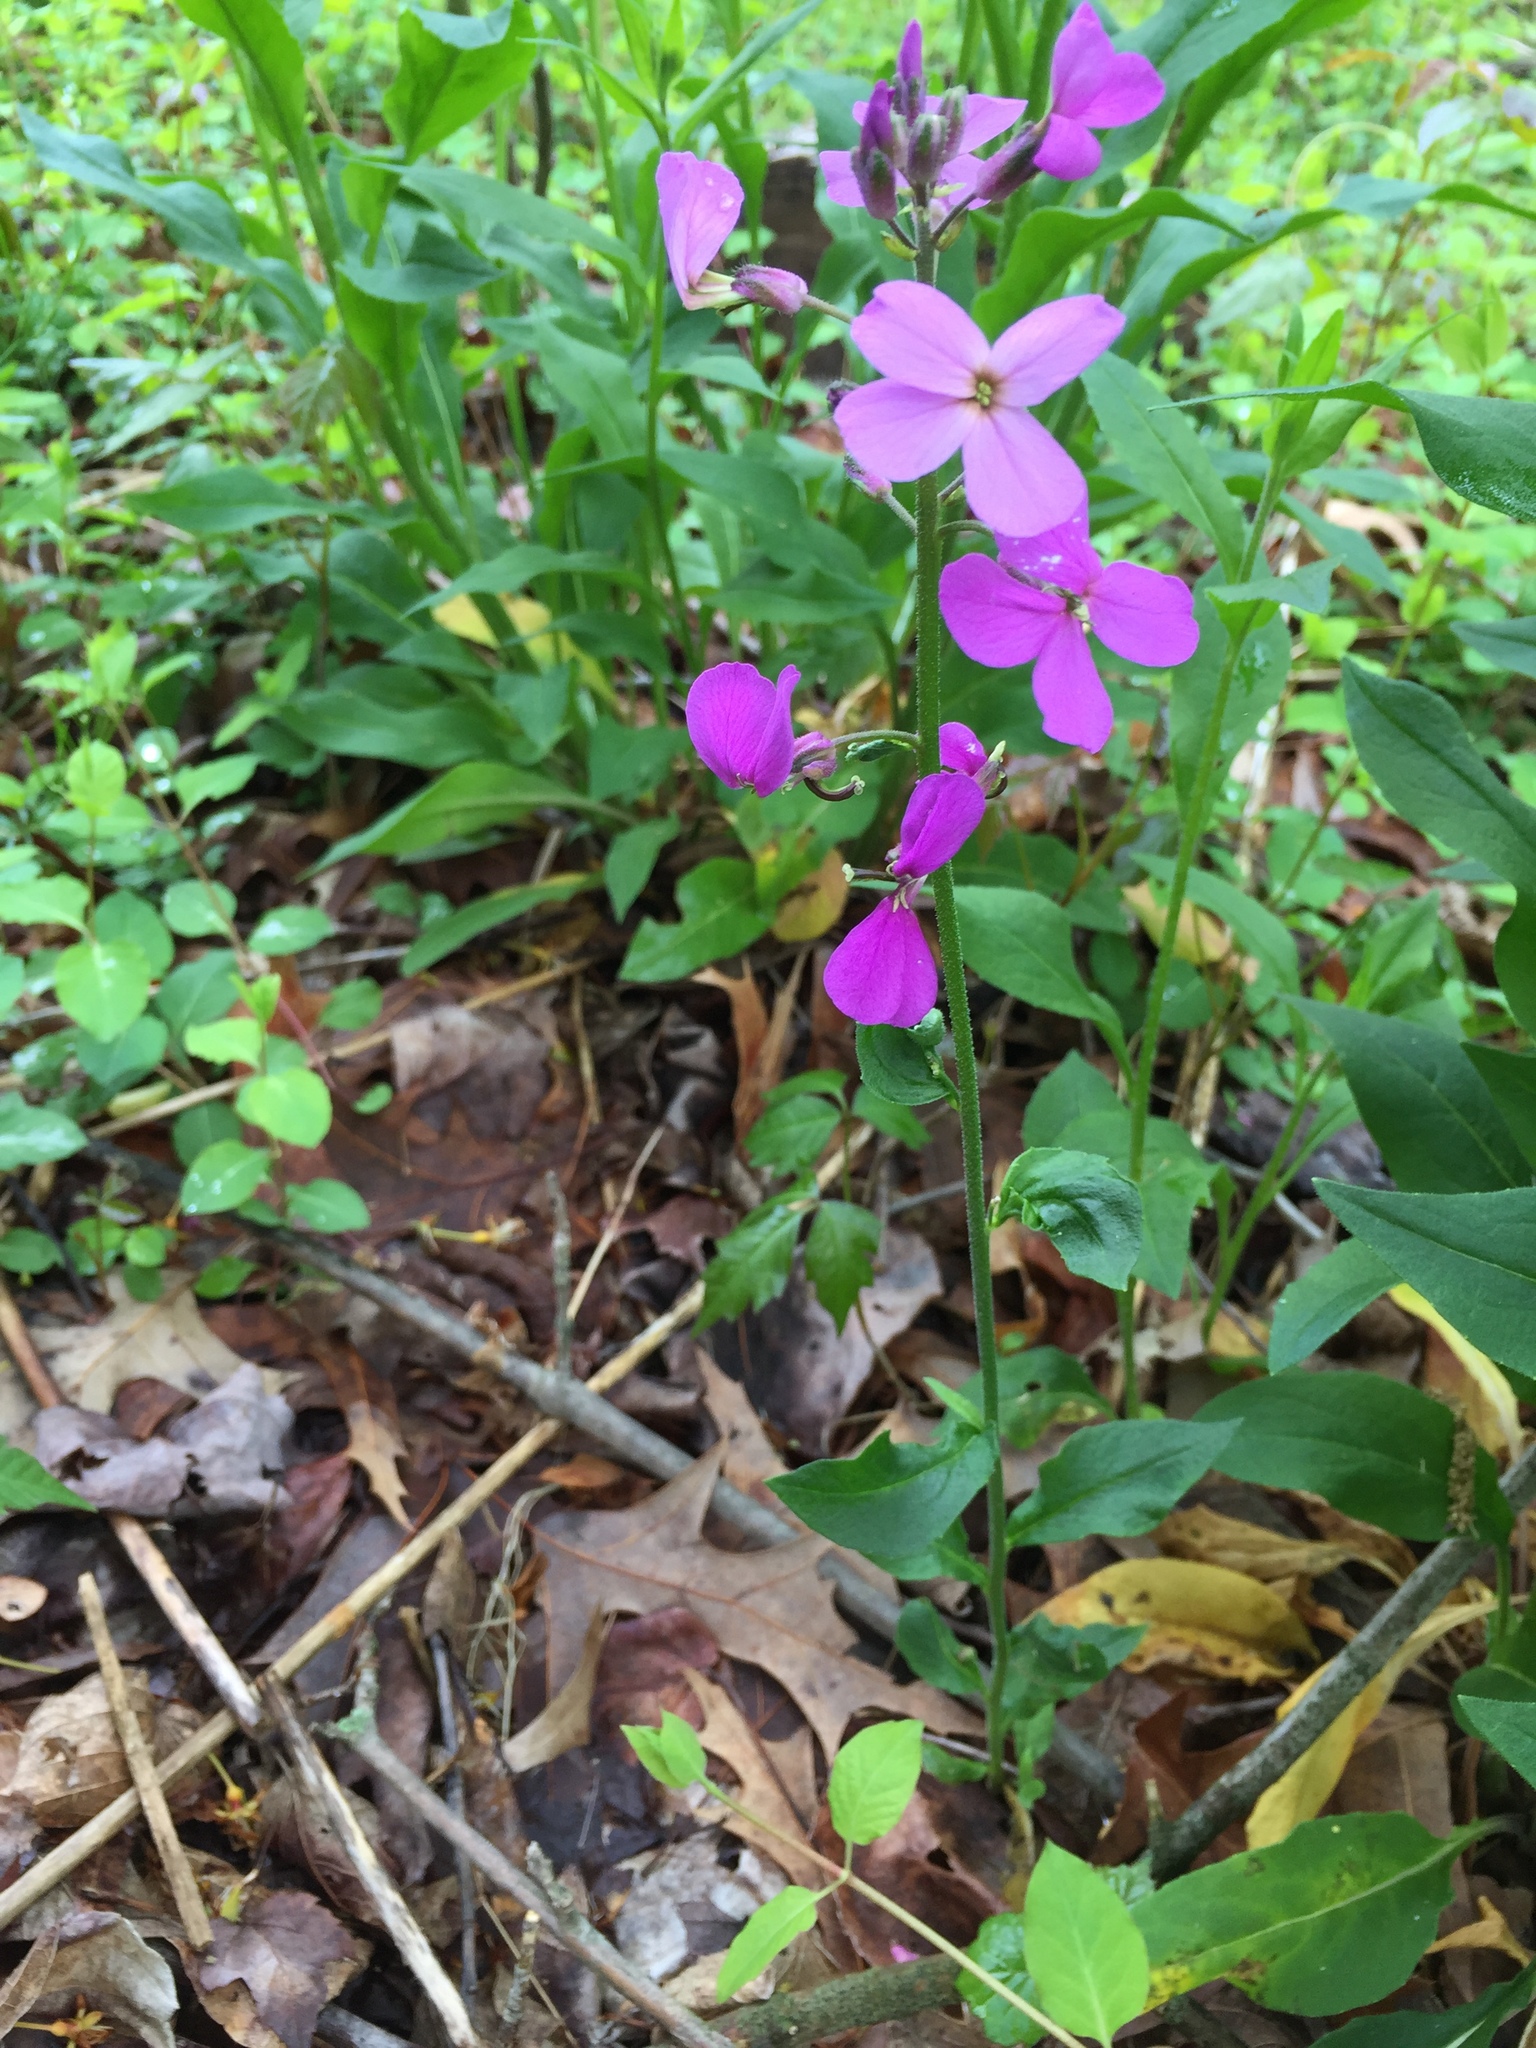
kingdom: Plantae
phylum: Tracheophyta
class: Magnoliopsida
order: Brassicales
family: Brassicaceae
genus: Hesperis
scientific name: Hesperis matronalis
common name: Dame's-violet
